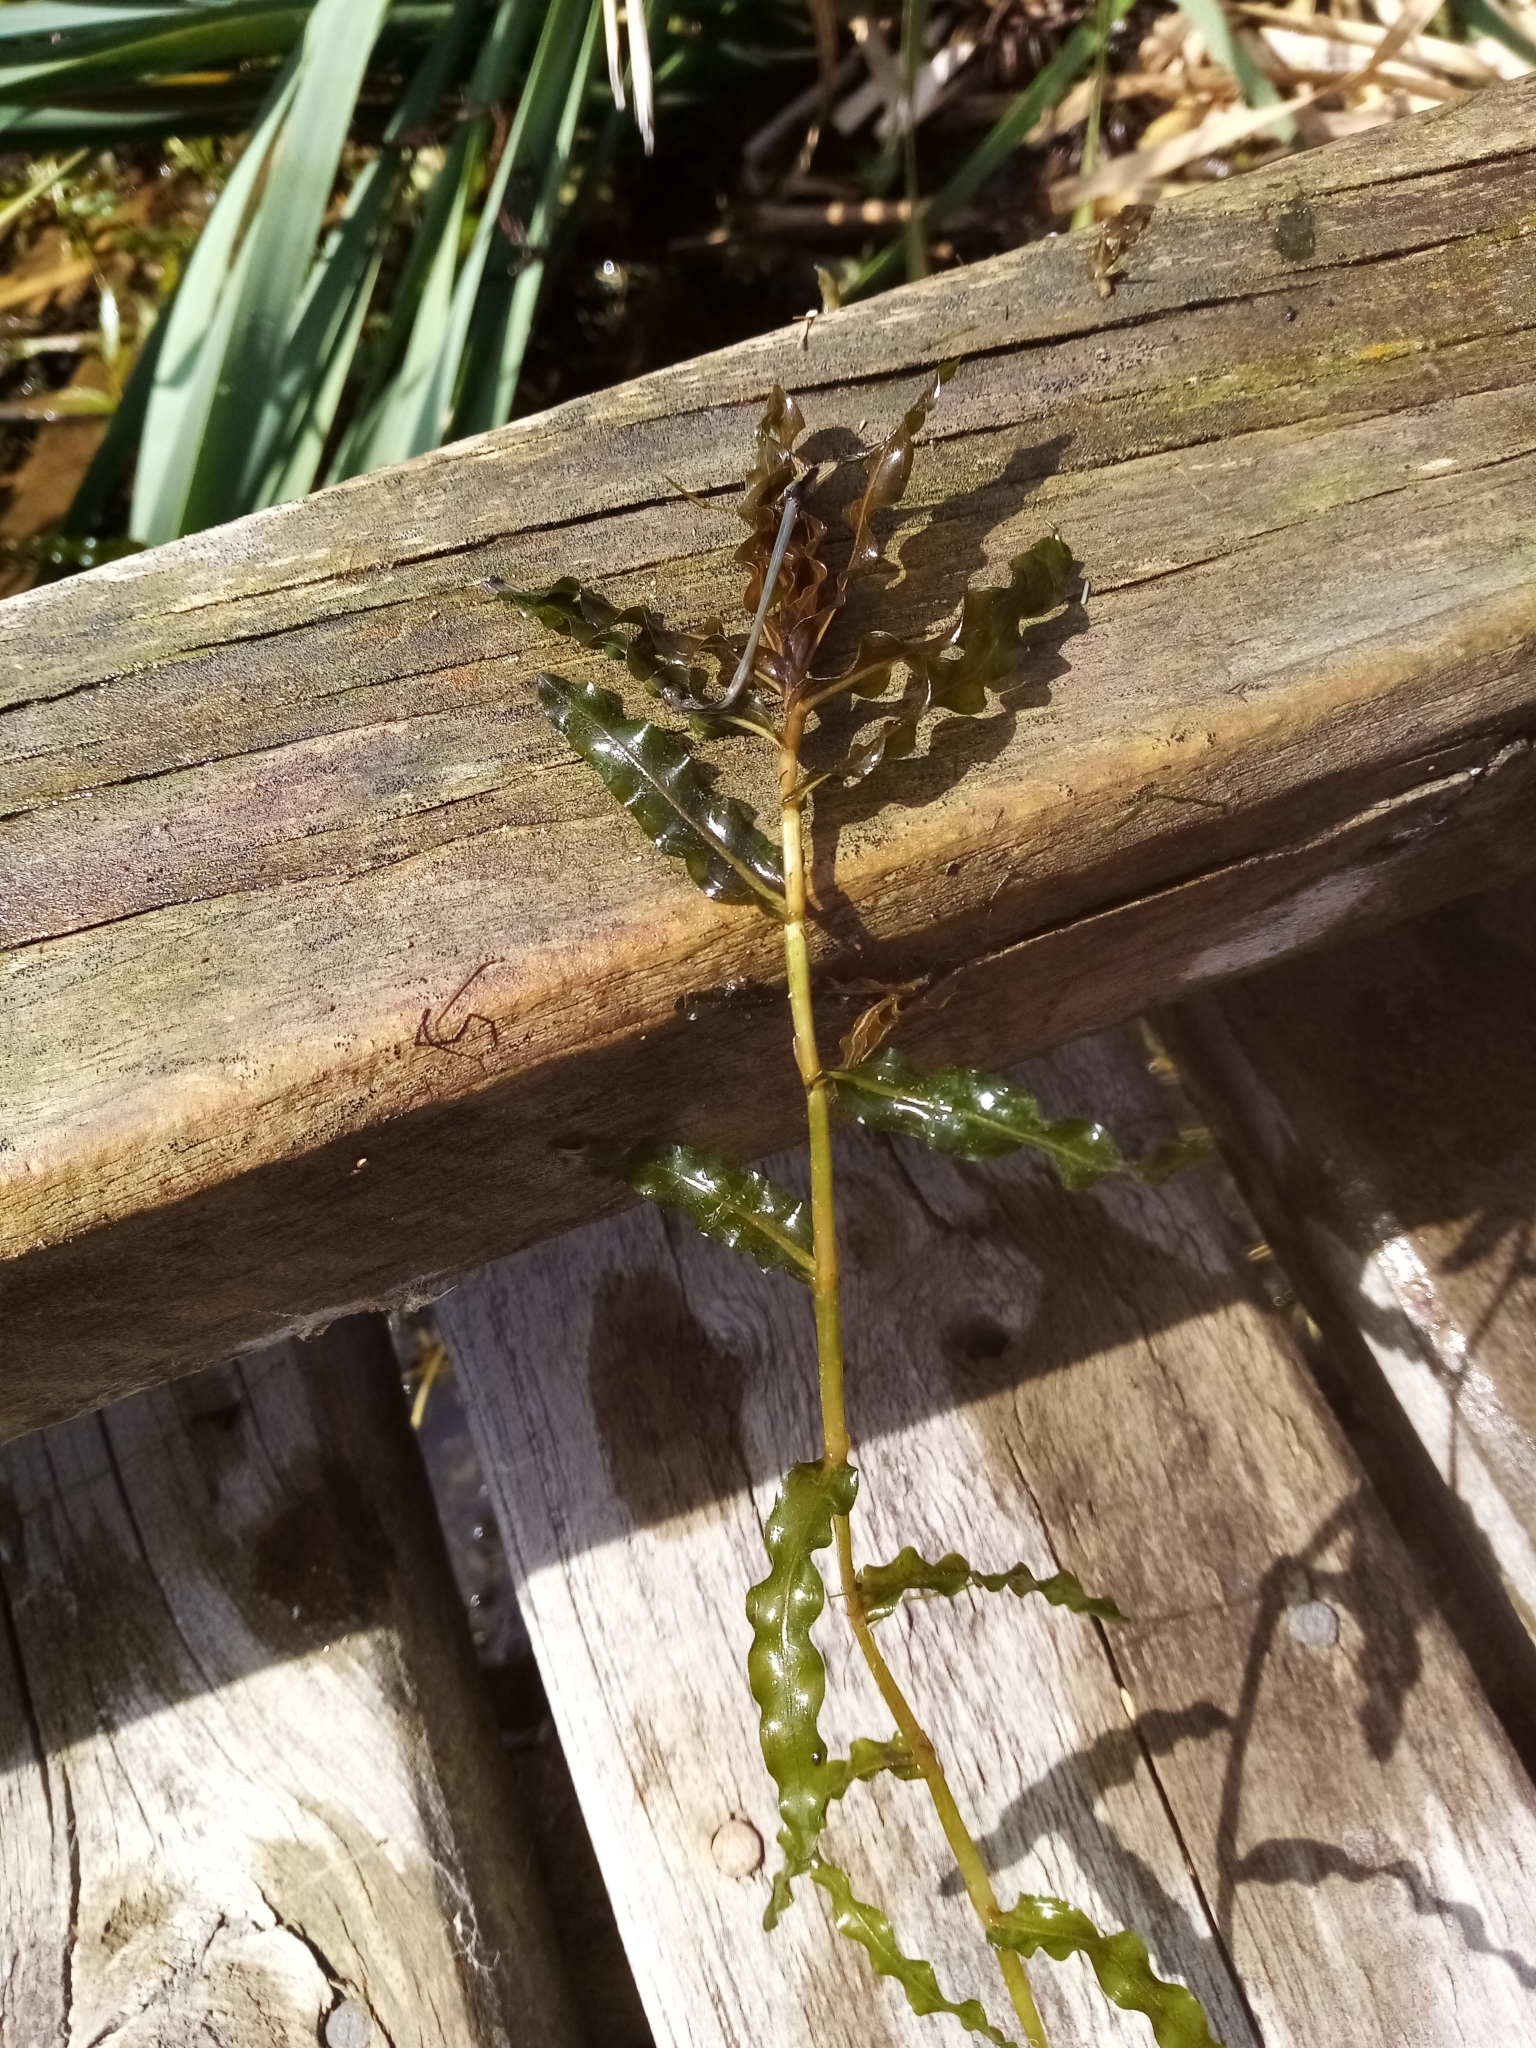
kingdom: Plantae
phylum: Tracheophyta
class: Liliopsida
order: Alismatales
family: Potamogetonaceae
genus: Potamogeton
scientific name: Potamogeton crispus
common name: Curled pondweed
